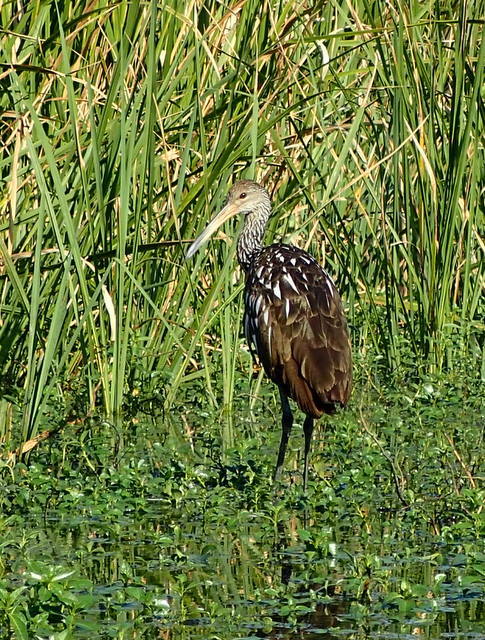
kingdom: Animalia
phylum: Chordata
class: Aves
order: Gruiformes
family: Aramidae
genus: Aramus
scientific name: Aramus guarauna
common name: Limpkin
